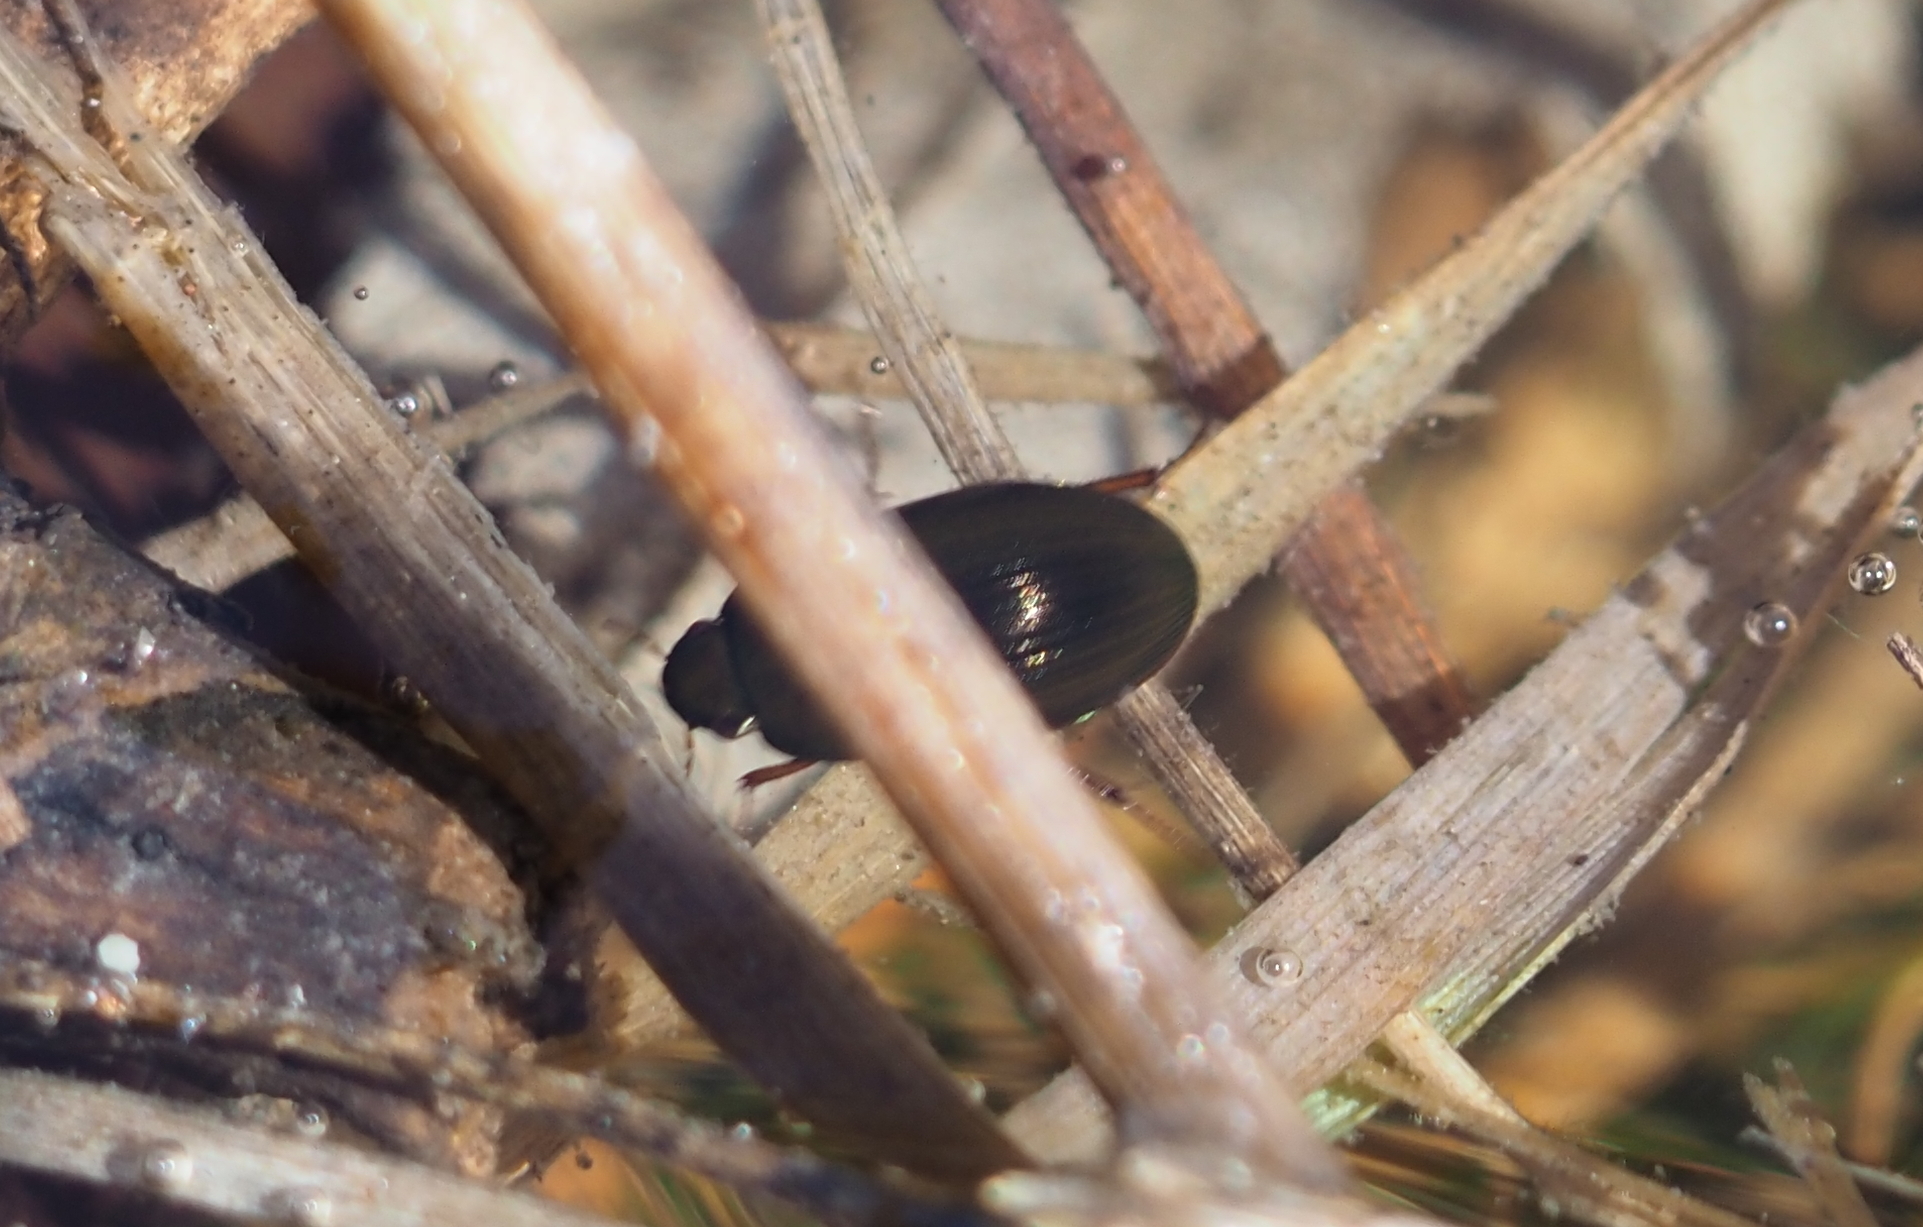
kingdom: Animalia
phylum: Arthropoda
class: Insecta
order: Coleoptera
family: Hydrophilidae
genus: Hydrobius
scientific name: Hydrobius fuscipes
